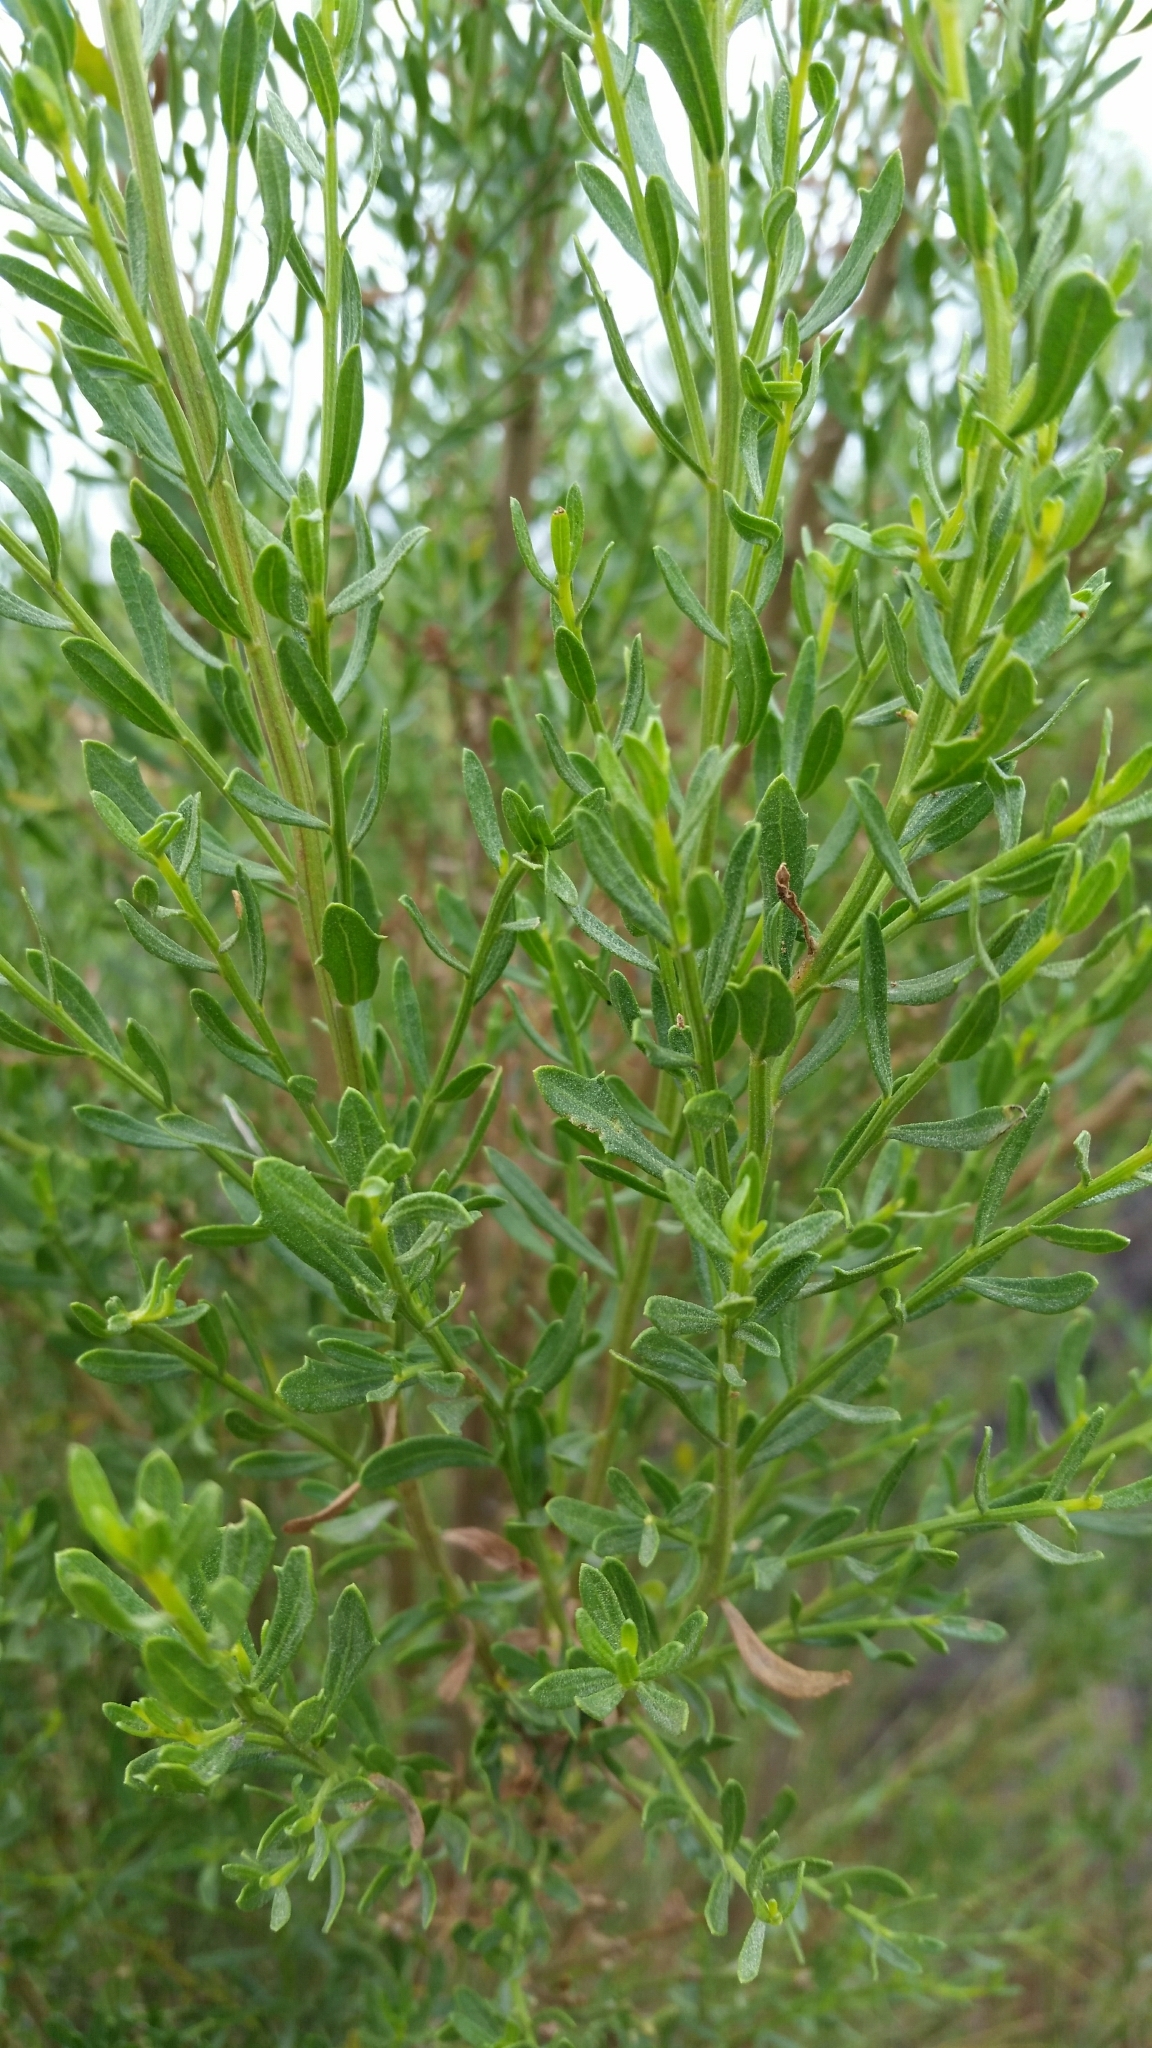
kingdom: Plantae
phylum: Tracheophyta
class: Magnoliopsida
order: Asterales
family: Asteraceae
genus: Baccharis
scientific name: Baccharis pilularis
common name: Coyotebrush
